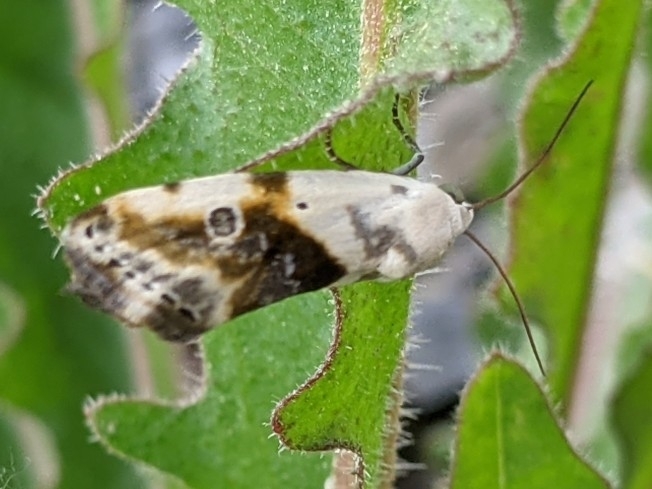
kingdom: Animalia
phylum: Arthropoda
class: Insecta
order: Lepidoptera
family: Noctuidae
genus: Acontia
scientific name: Acontia candefacta
